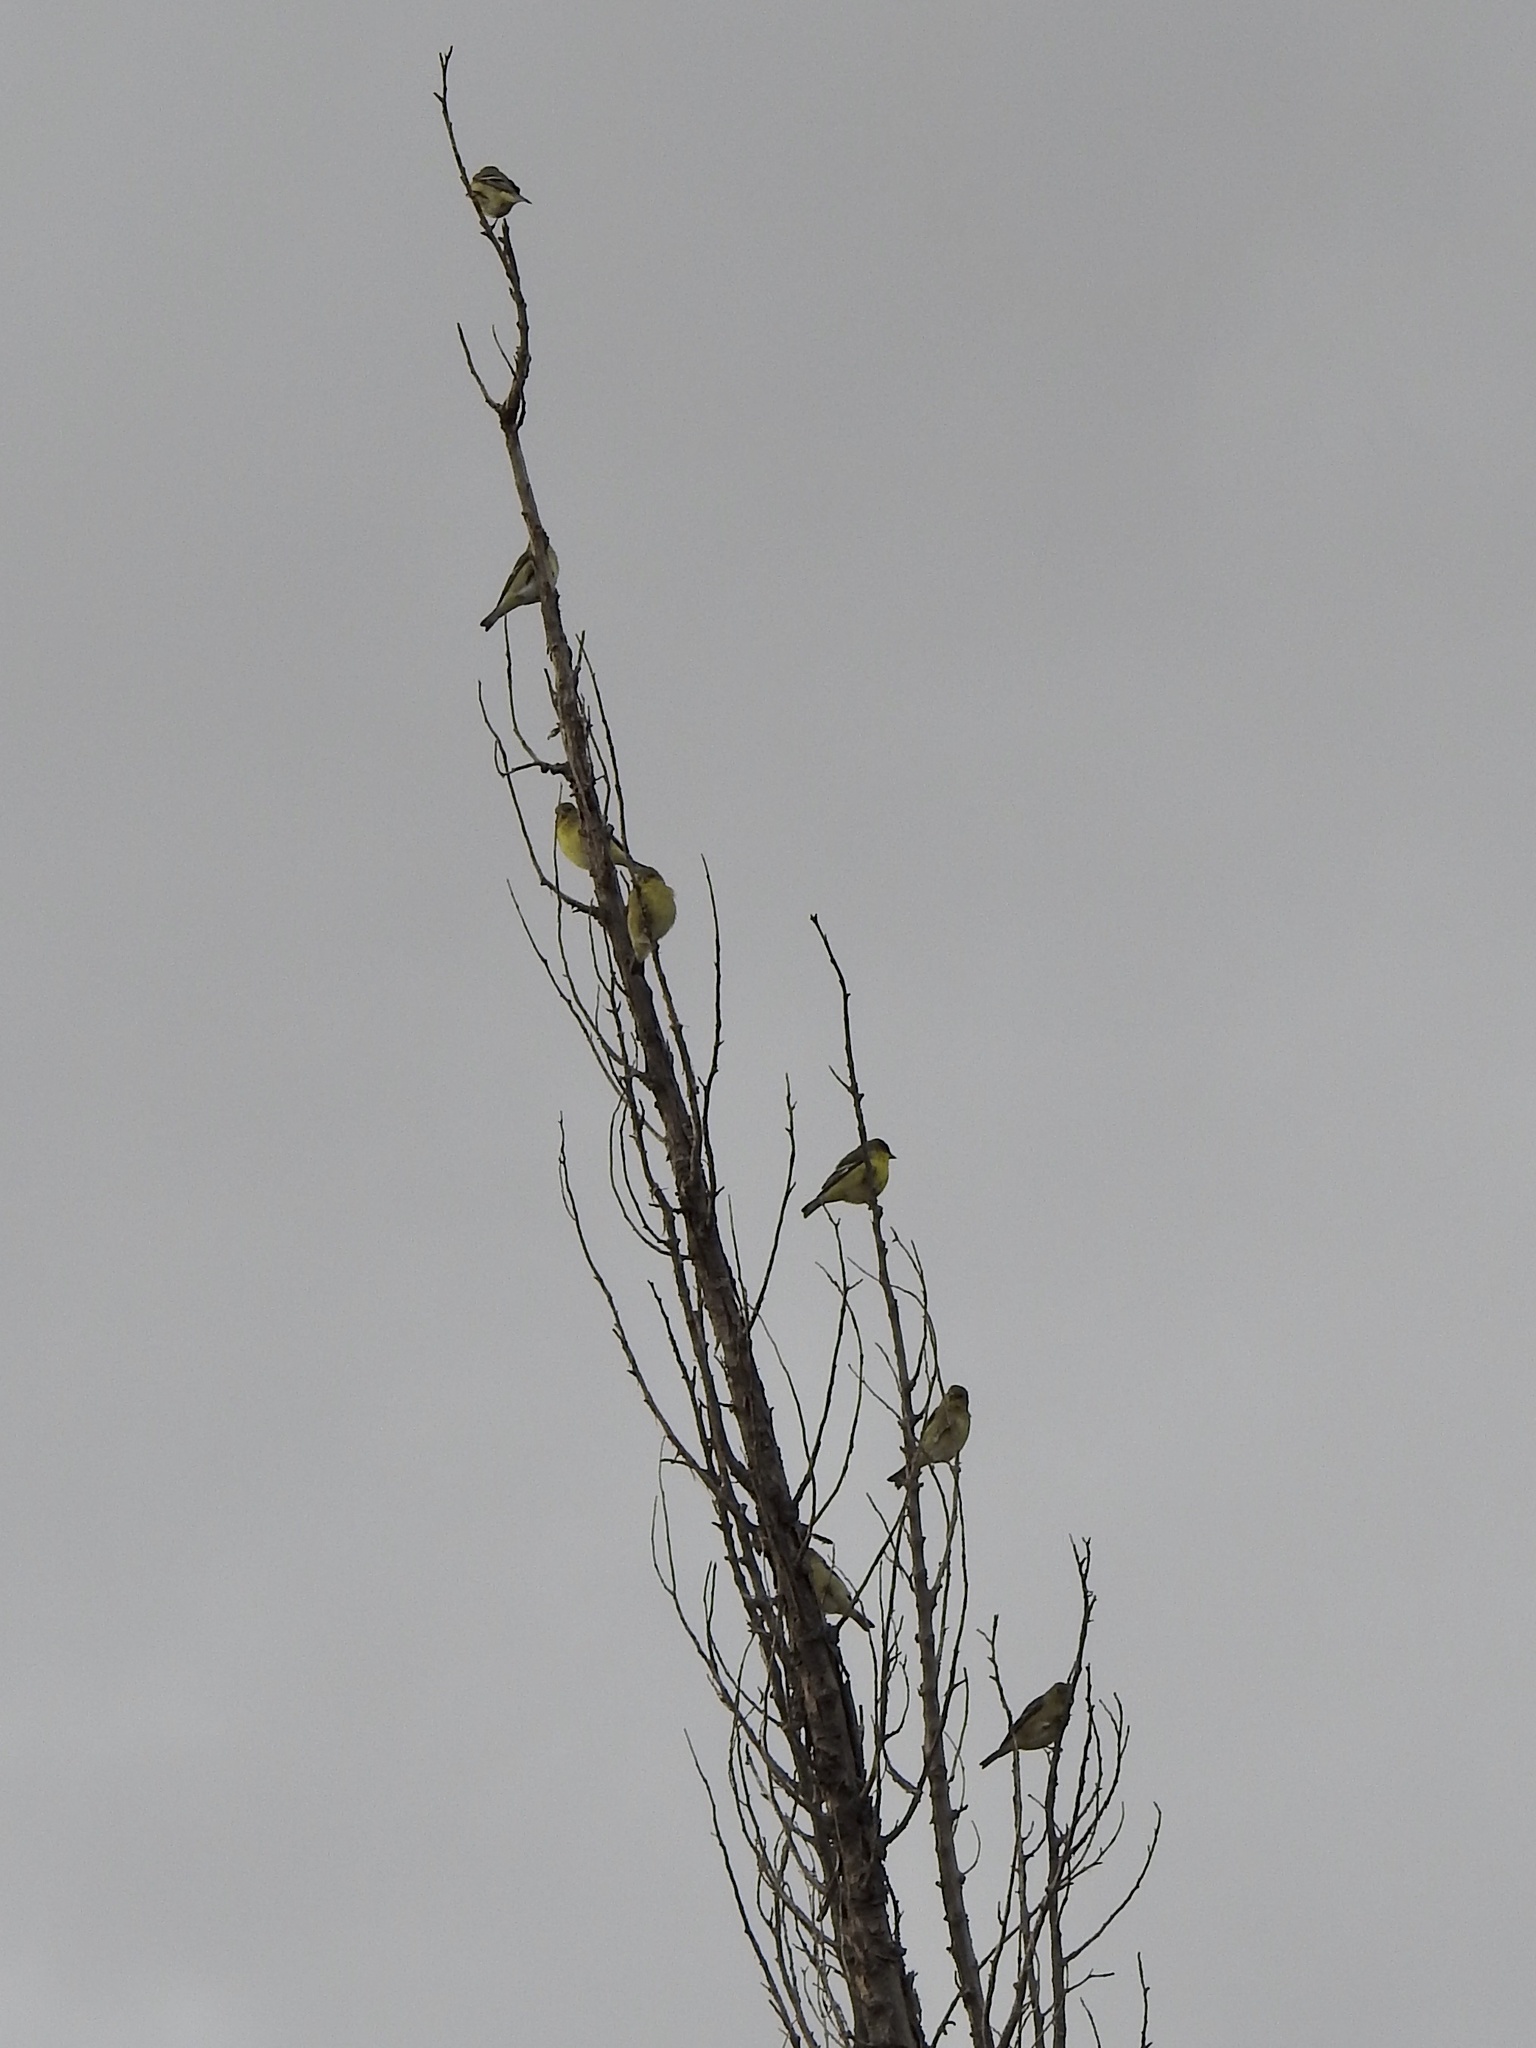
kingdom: Animalia
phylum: Chordata
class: Aves
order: Passeriformes
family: Fringillidae
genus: Spinus
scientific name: Spinus psaltria
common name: Lesser goldfinch
